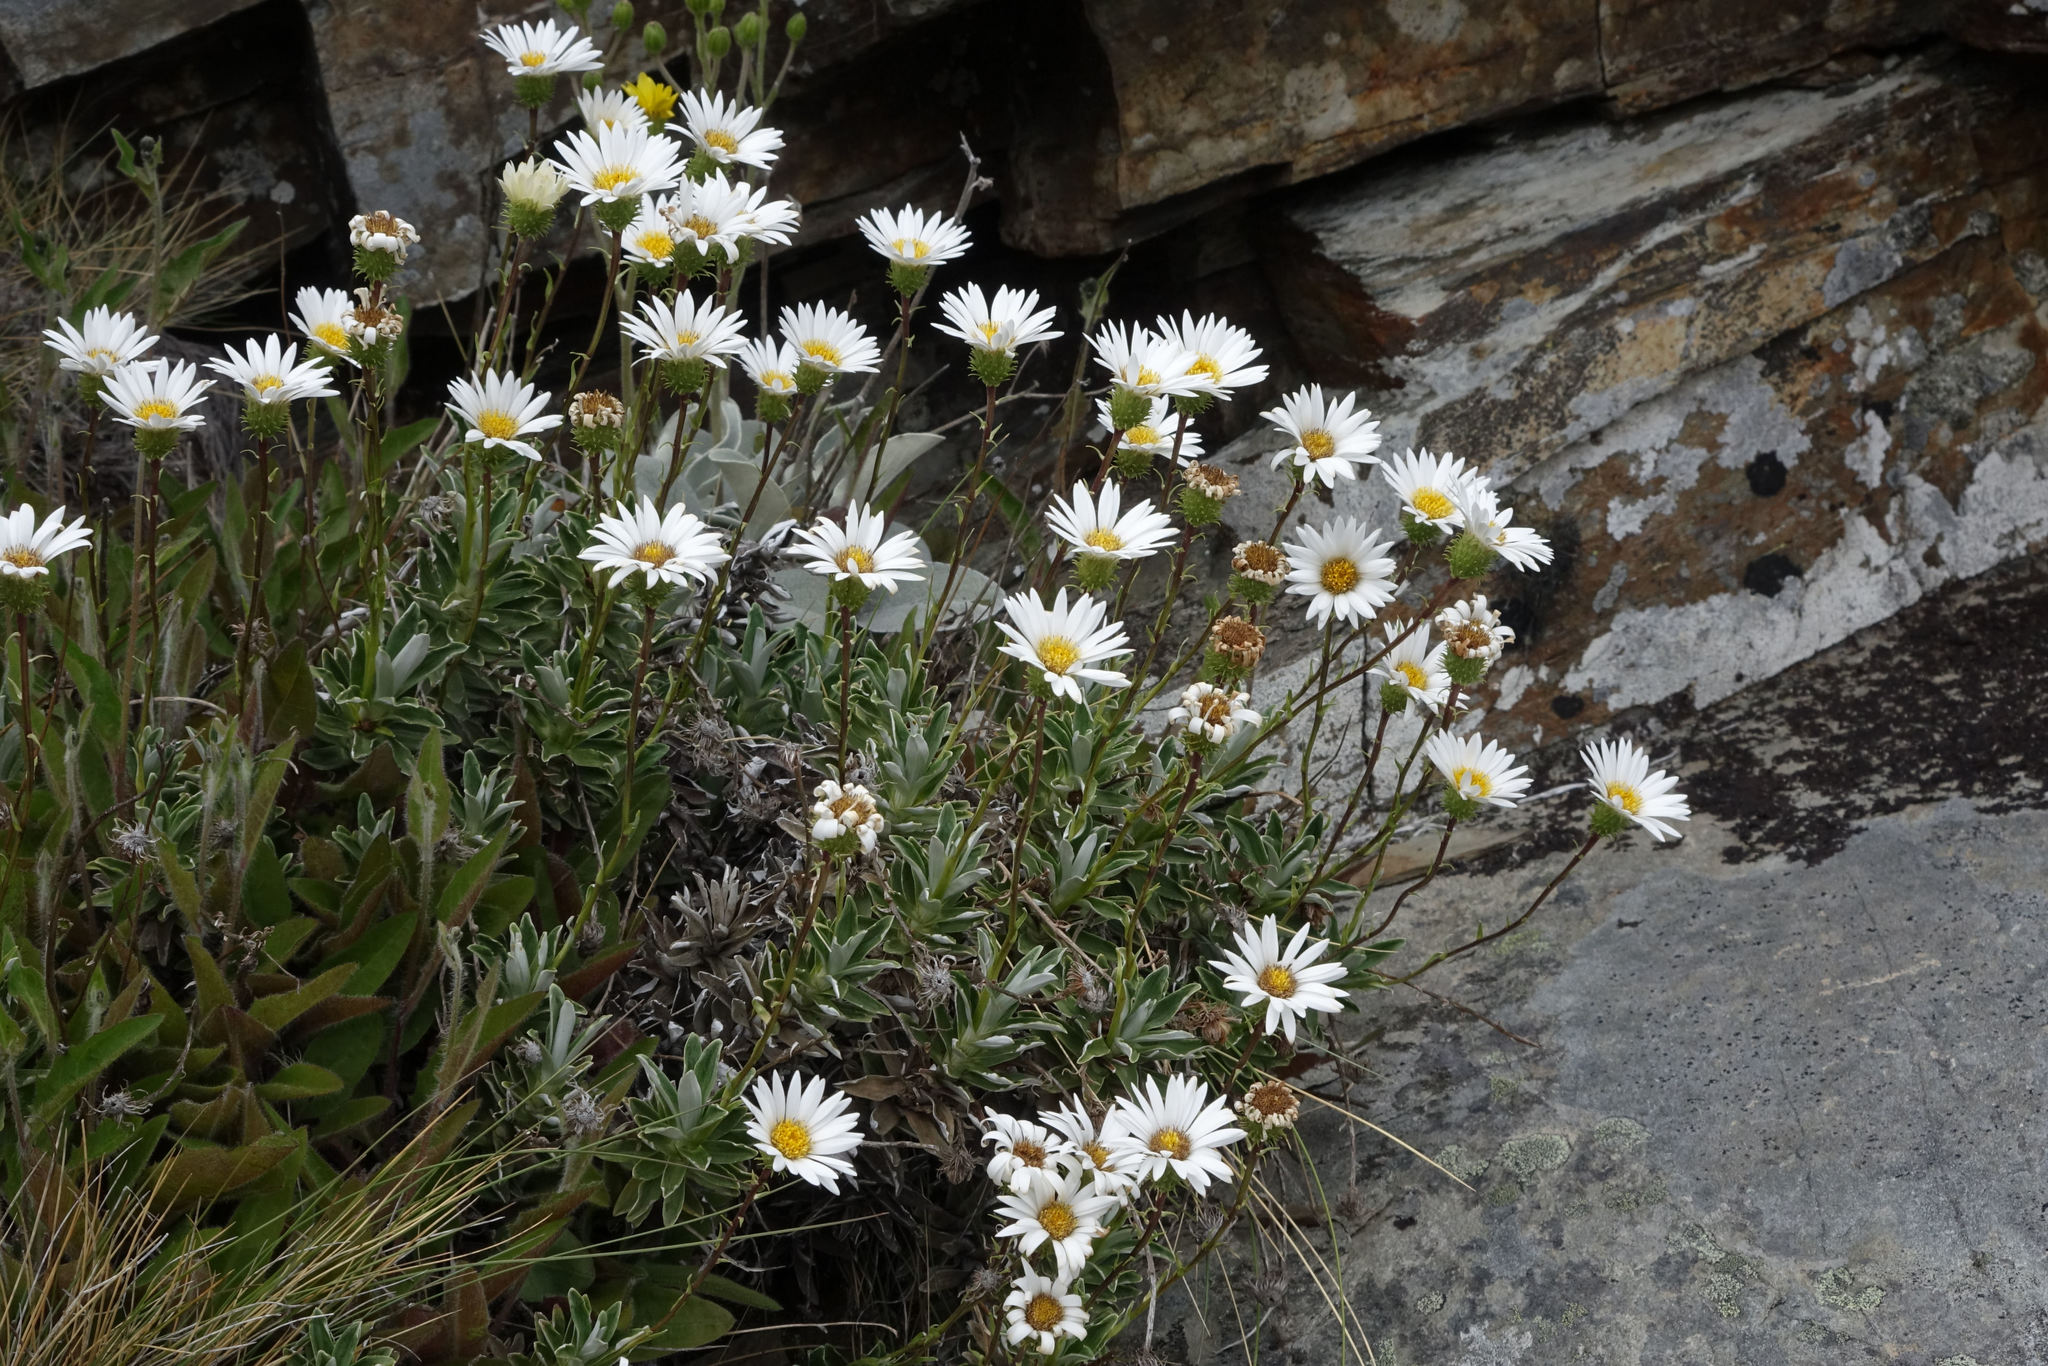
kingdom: Plantae
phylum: Tracheophyta
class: Magnoliopsida
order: Asterales
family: Asteraceae
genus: Celmisia
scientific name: Celmisia angustifolia
